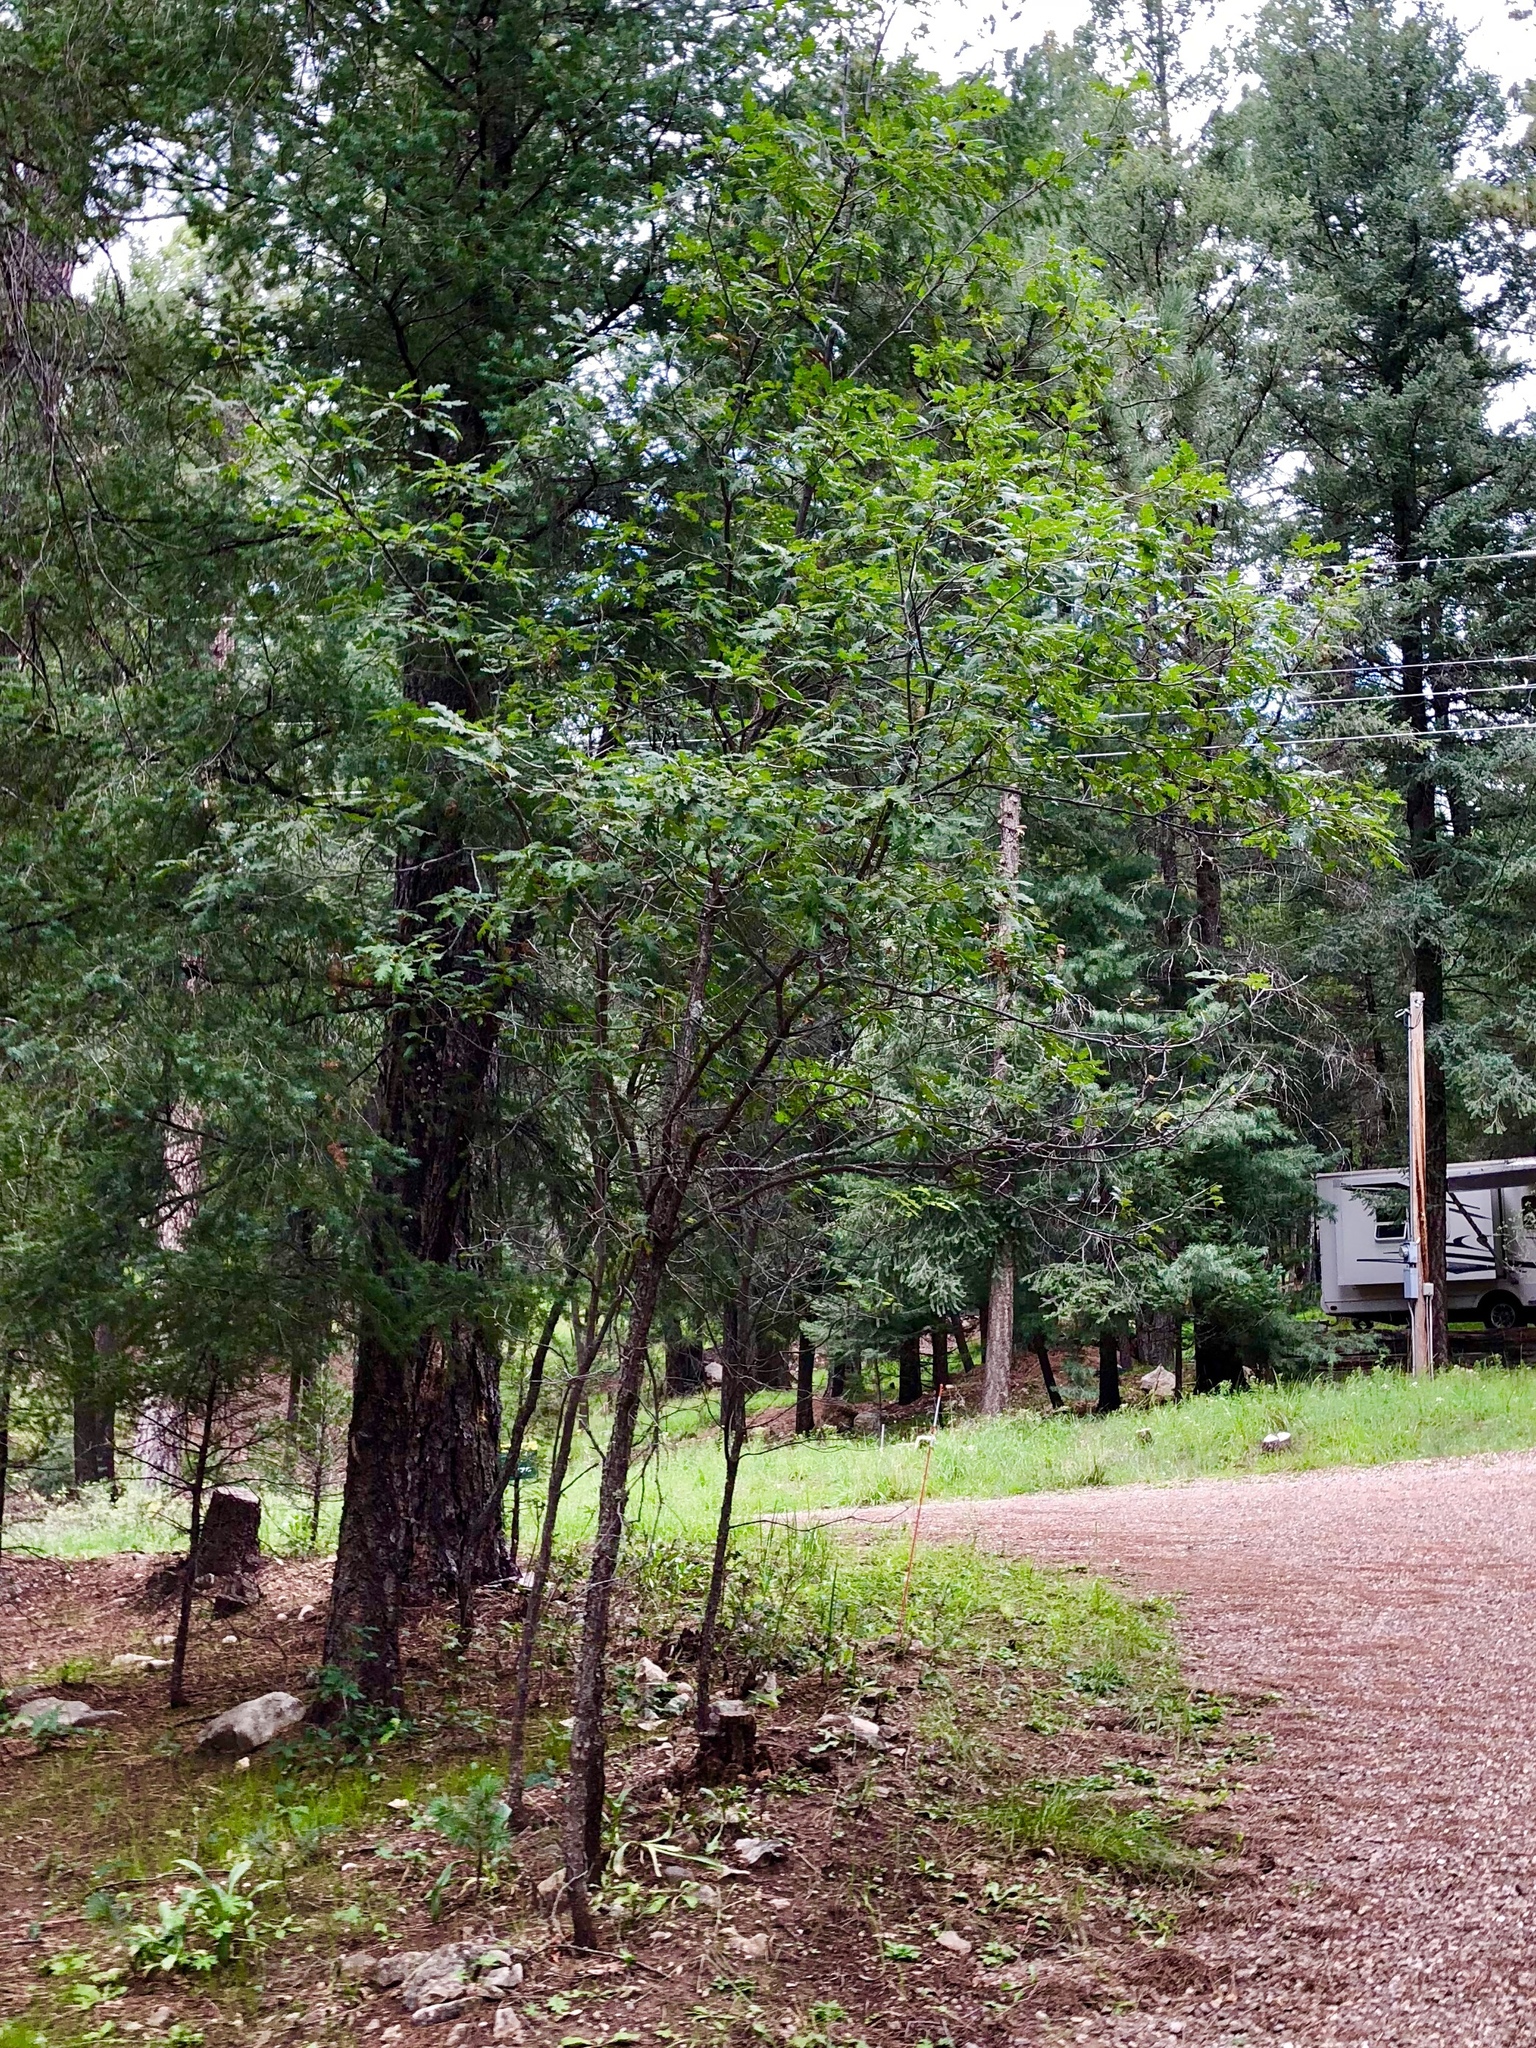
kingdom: Plantae
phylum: Tracheophyta
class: Magnoliopsida
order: Fagales
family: Fagaceae
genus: Quercus
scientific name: Quercus gambelii
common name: Gambel oak
